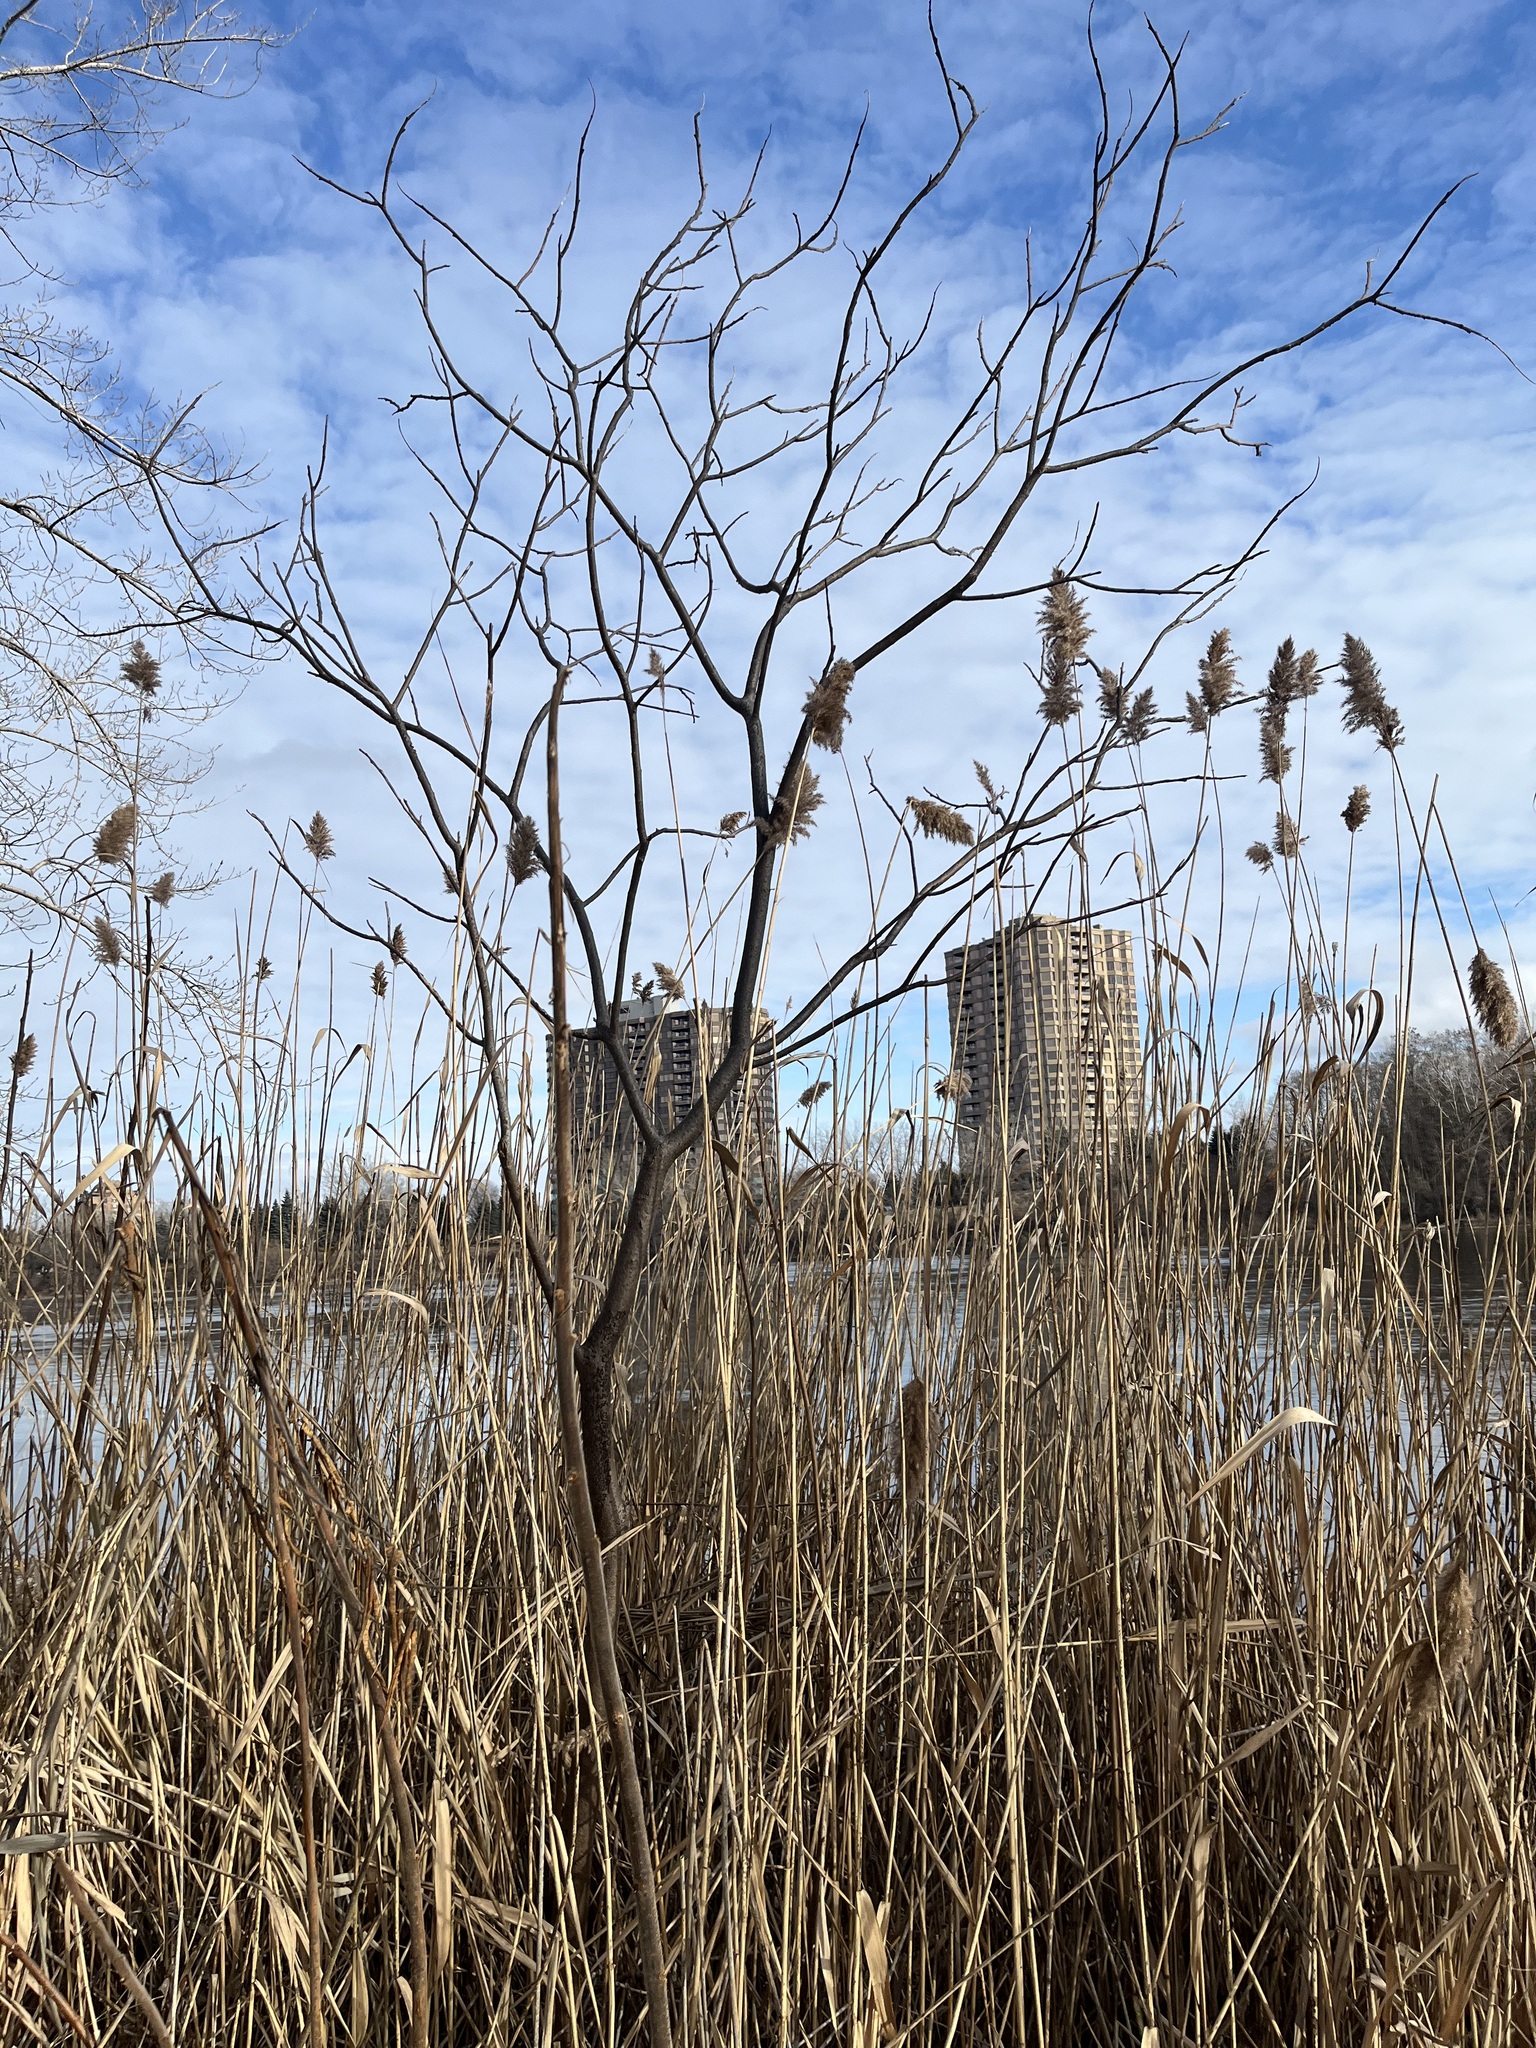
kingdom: Plantae
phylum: Tracheophyta
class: Magnoliopsida
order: Sapindales
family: Anacardiaceae
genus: Rhus
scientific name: Rhus typhina
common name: Staghorn sumac
